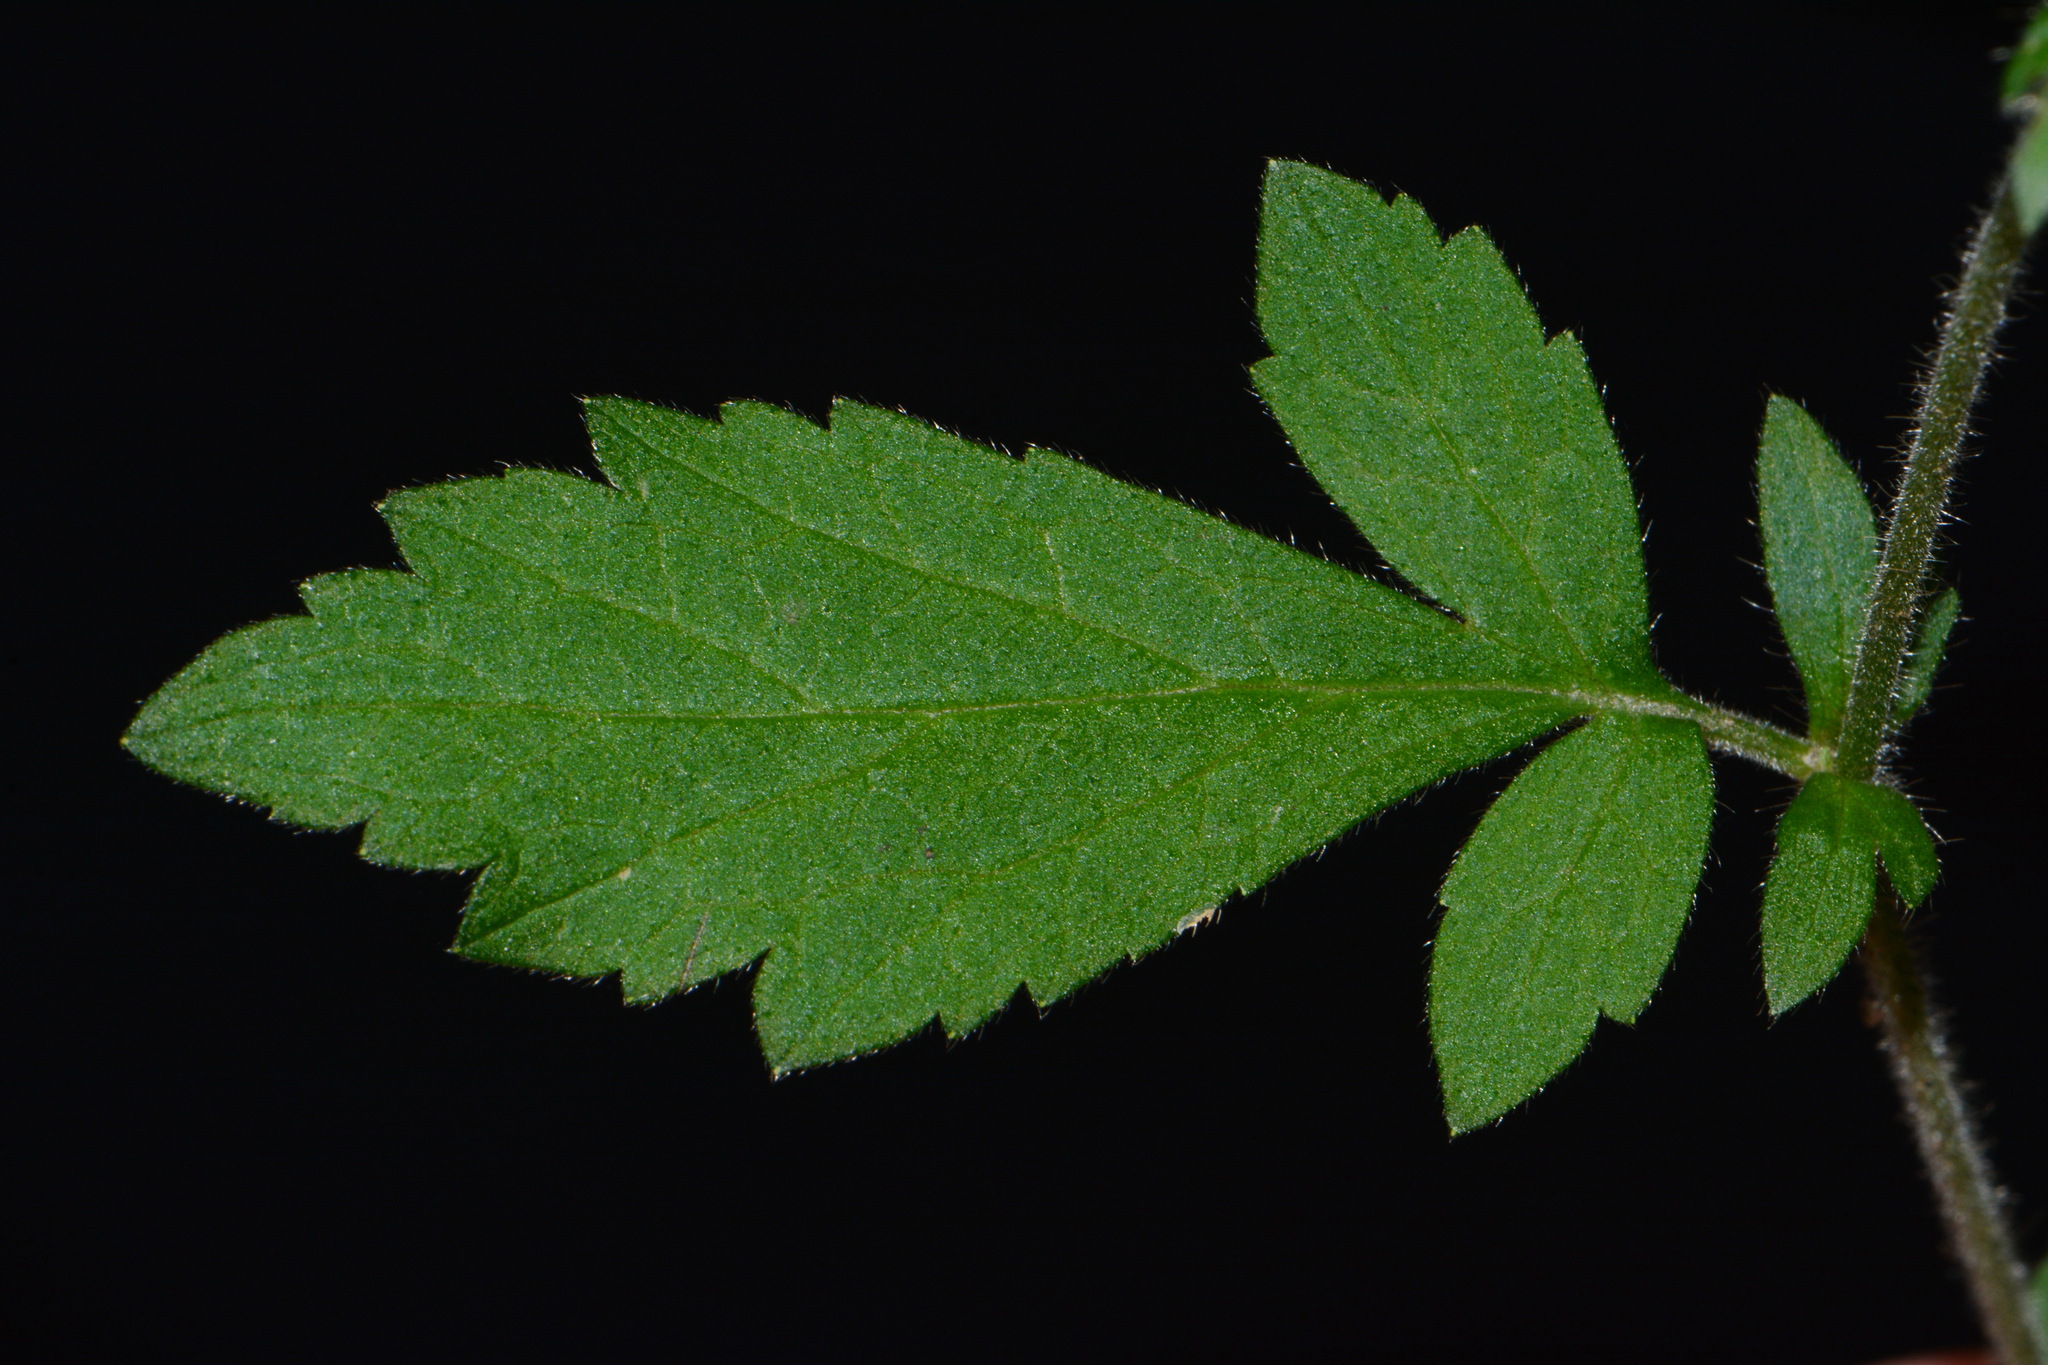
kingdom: Plantae
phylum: Tracheophyta
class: Magnoliopsida
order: Rosales
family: Rosaceae
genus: Geum
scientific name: Geum virginianum
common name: Cream avens
